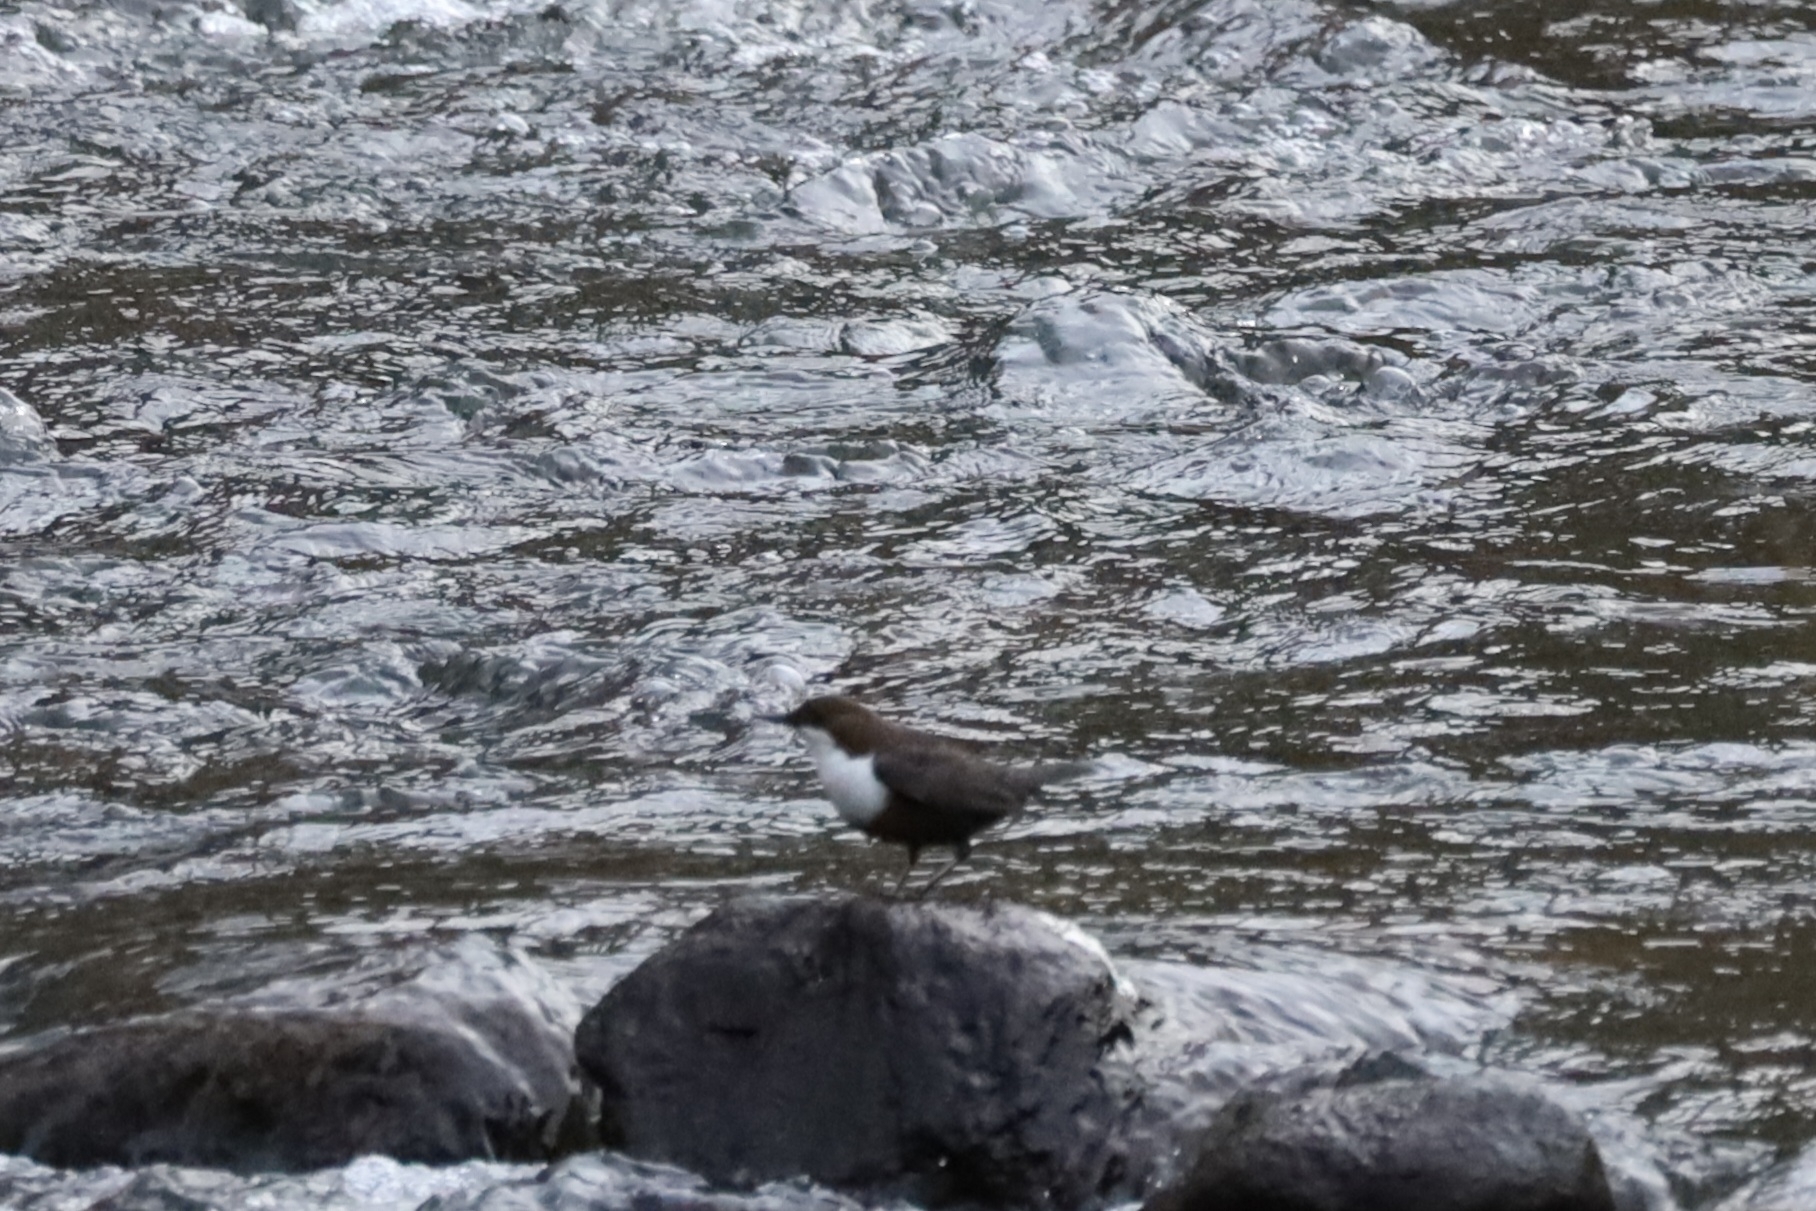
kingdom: Animalia
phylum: Chordata
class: Aves
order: Passeriformes
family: Cinclidae
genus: Cinclus
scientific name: Cinclus cinclus
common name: White-throated dipper
